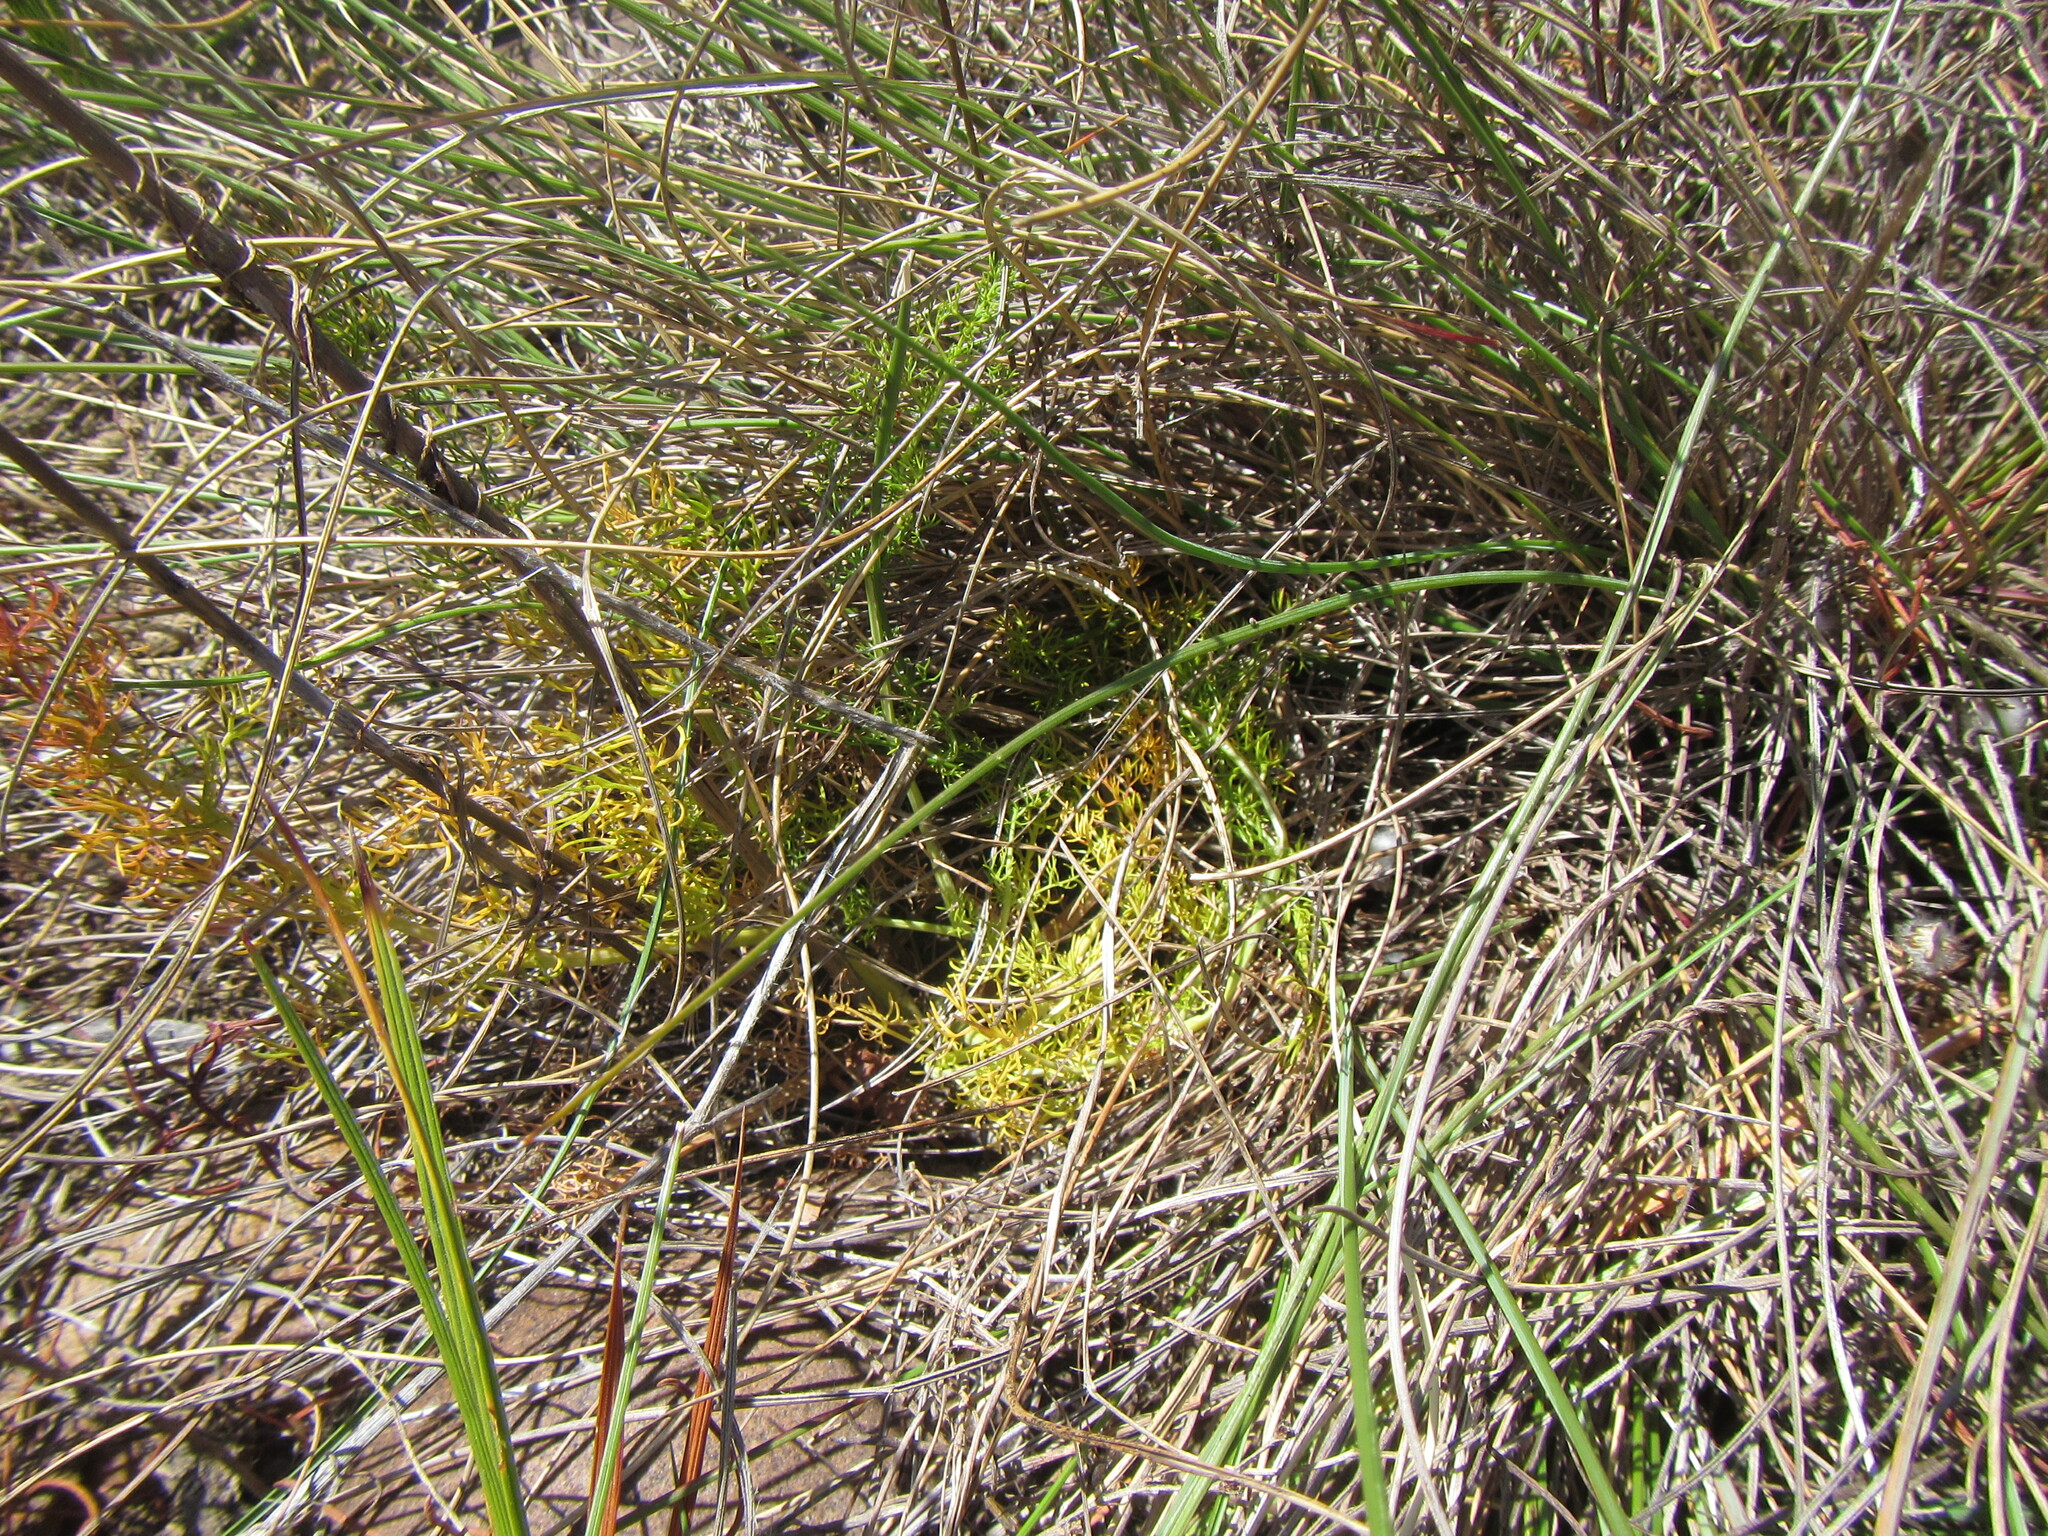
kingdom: Plantae
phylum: Tracheophyta
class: Magnoliopsida
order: Apiales
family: Apiaceae
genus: Chamarea
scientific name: Chamarea capensis
